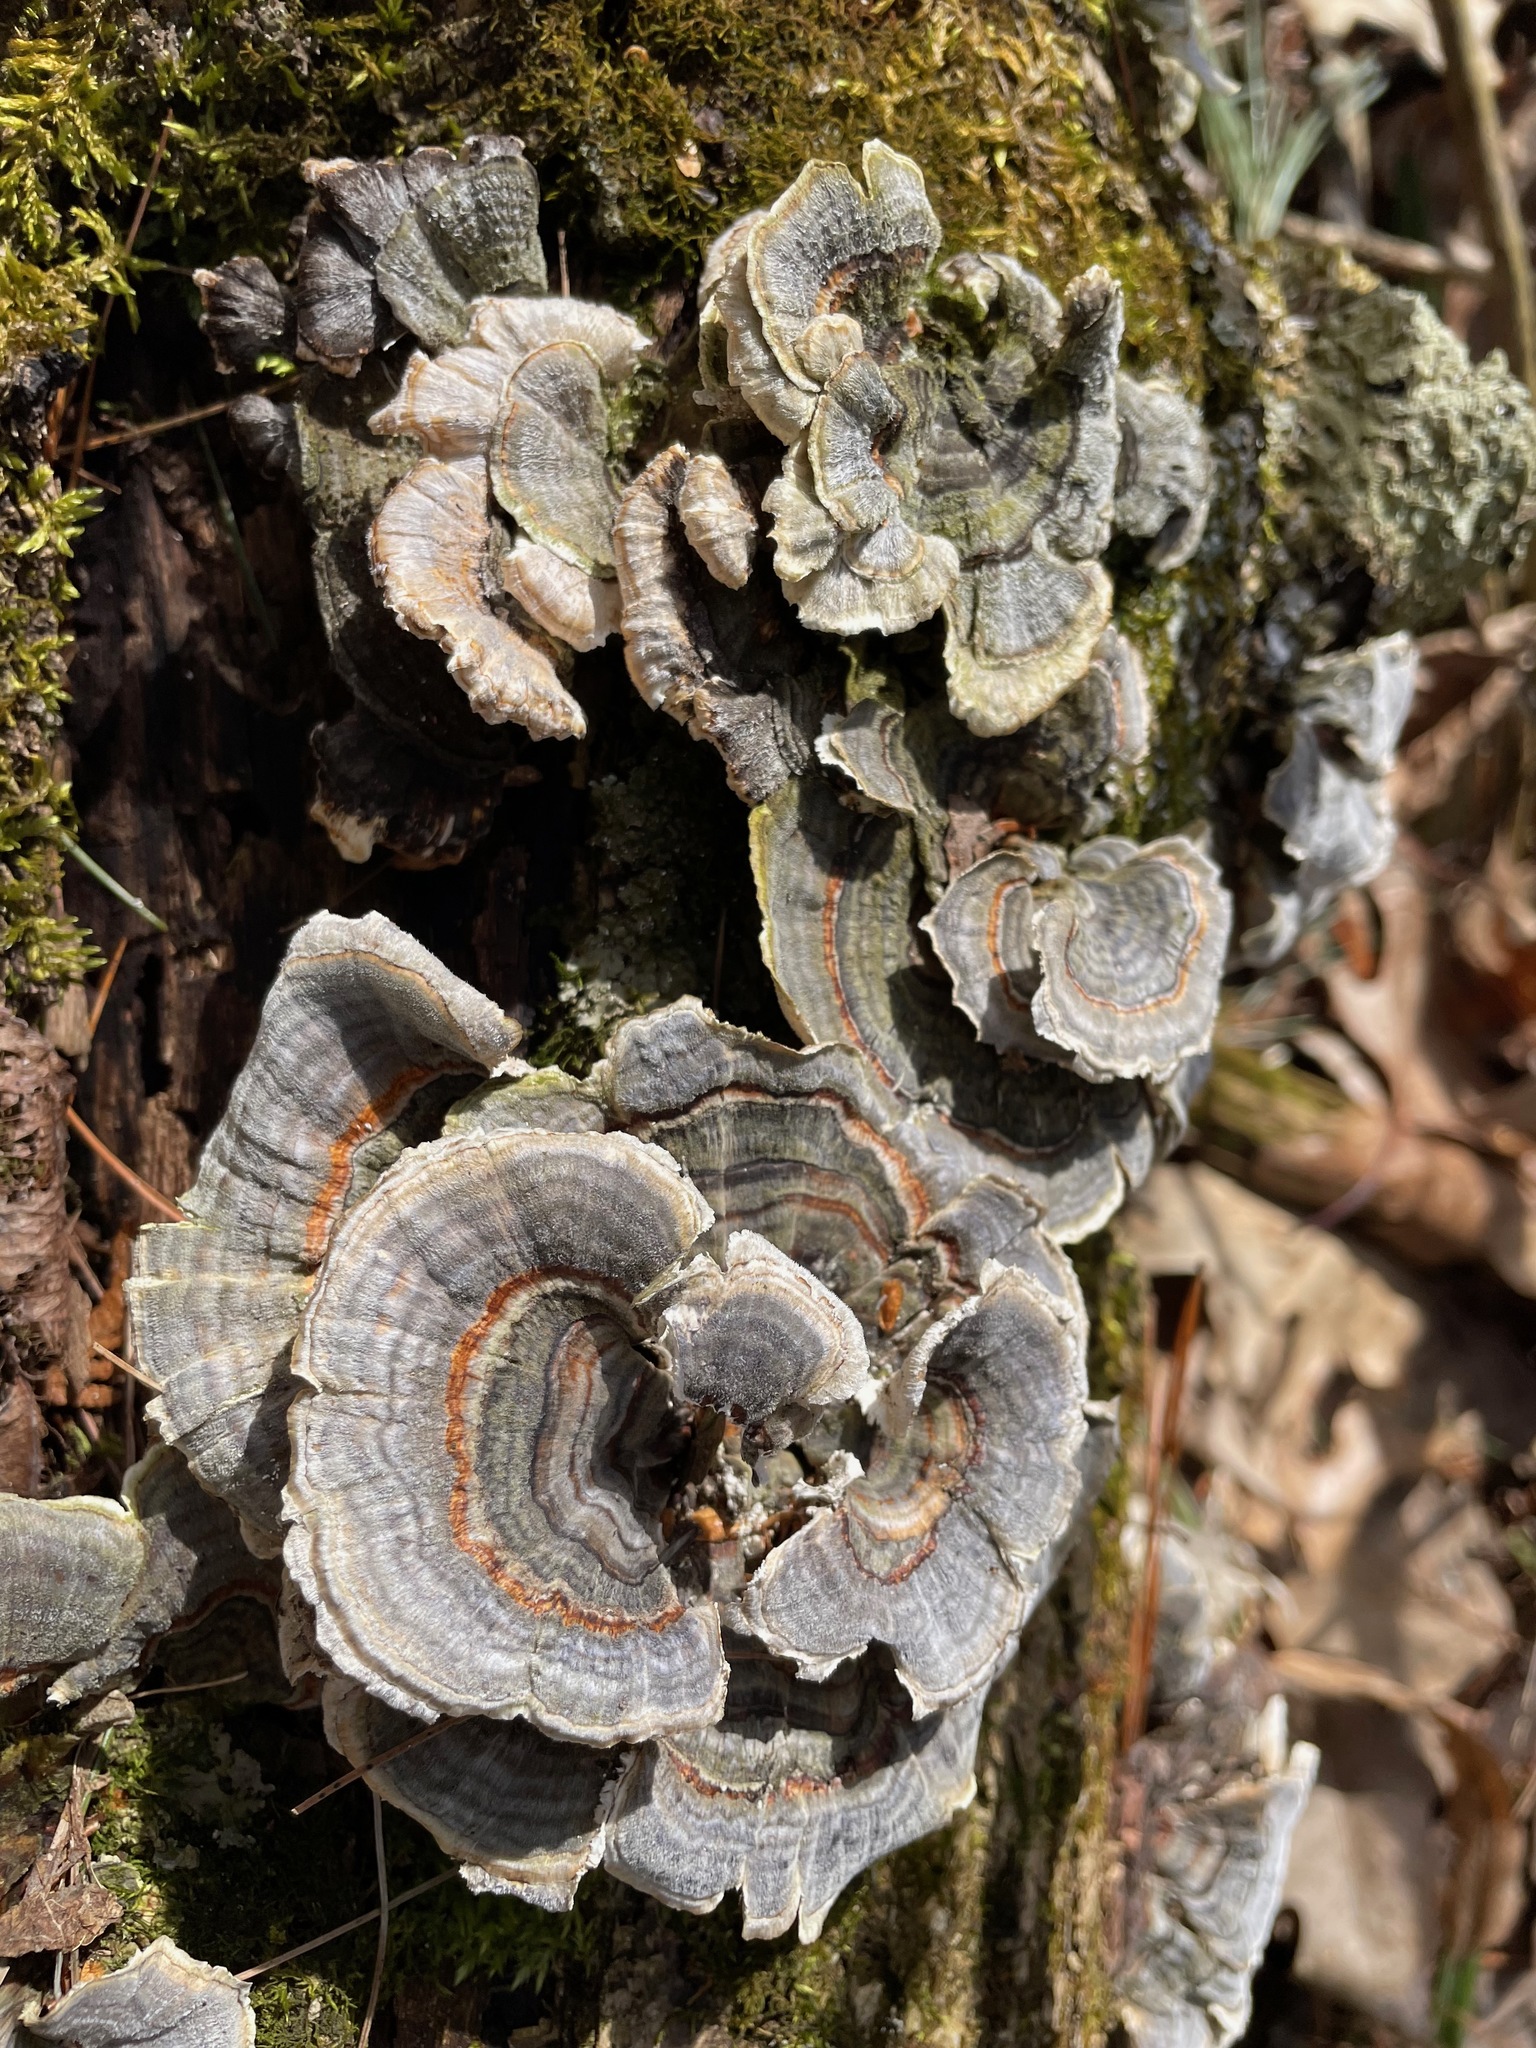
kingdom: Fungi
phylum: Basidiomycota
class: Agaricomycetes
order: Polyporales
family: Polyporaceae
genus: Trametes
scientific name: Trametes versicolor
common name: Turkeytail
